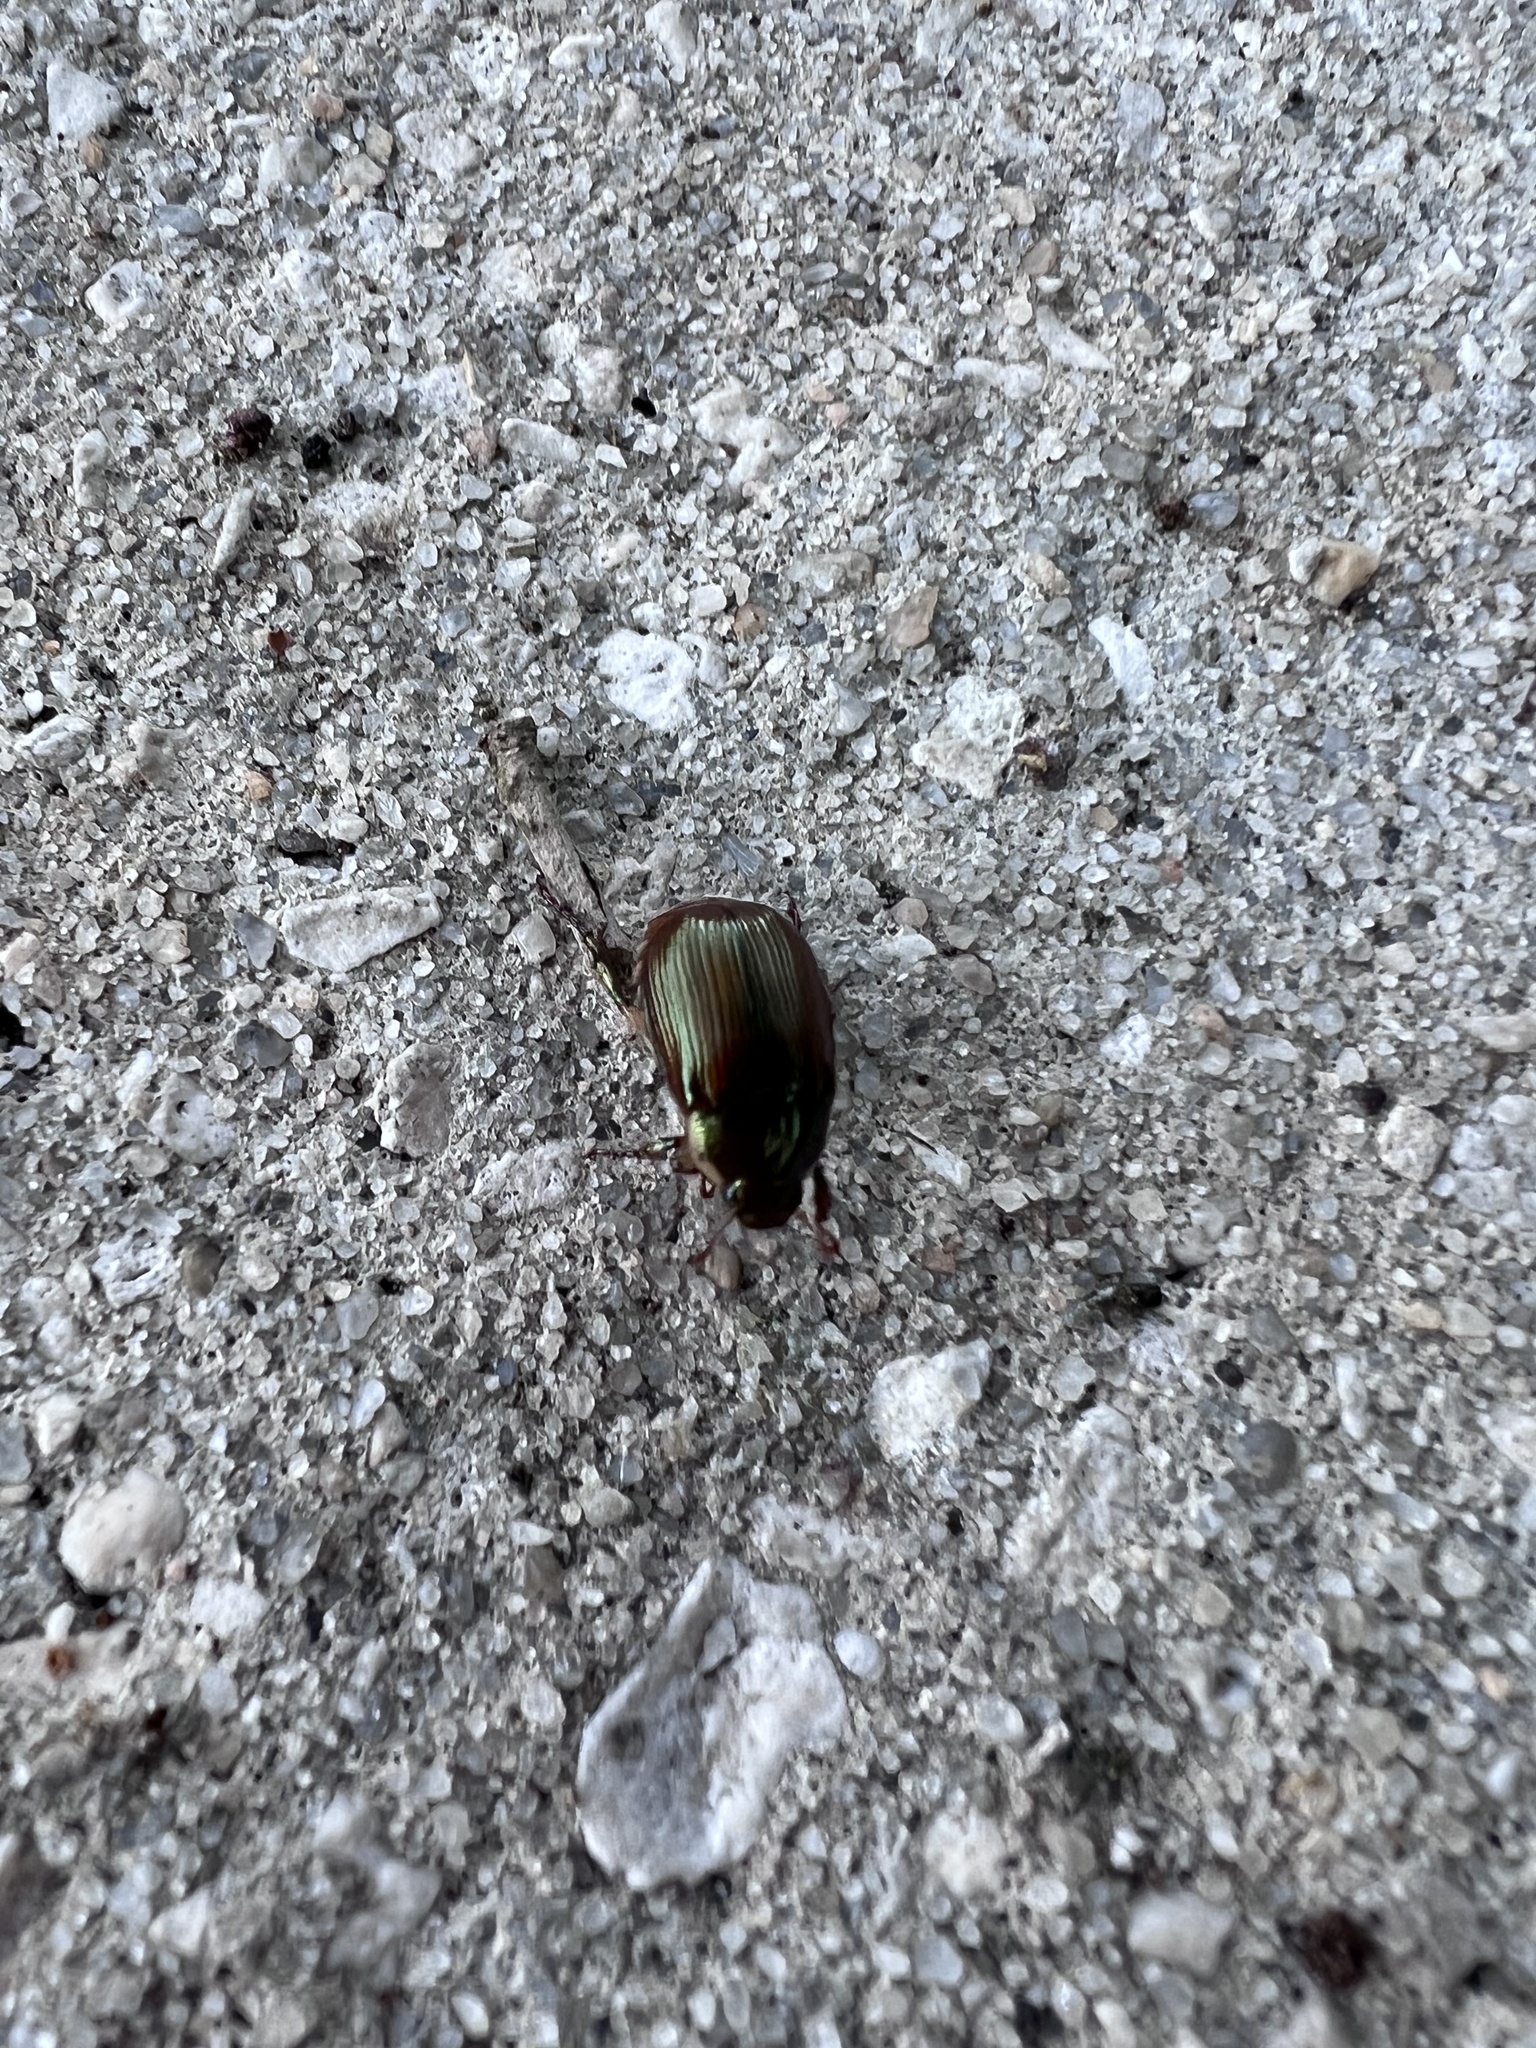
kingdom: Animalia
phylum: Arthropoda
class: Insecta
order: Coleoptera
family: Scarabaeidae
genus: Callistethus
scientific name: Callistethus marginatus
